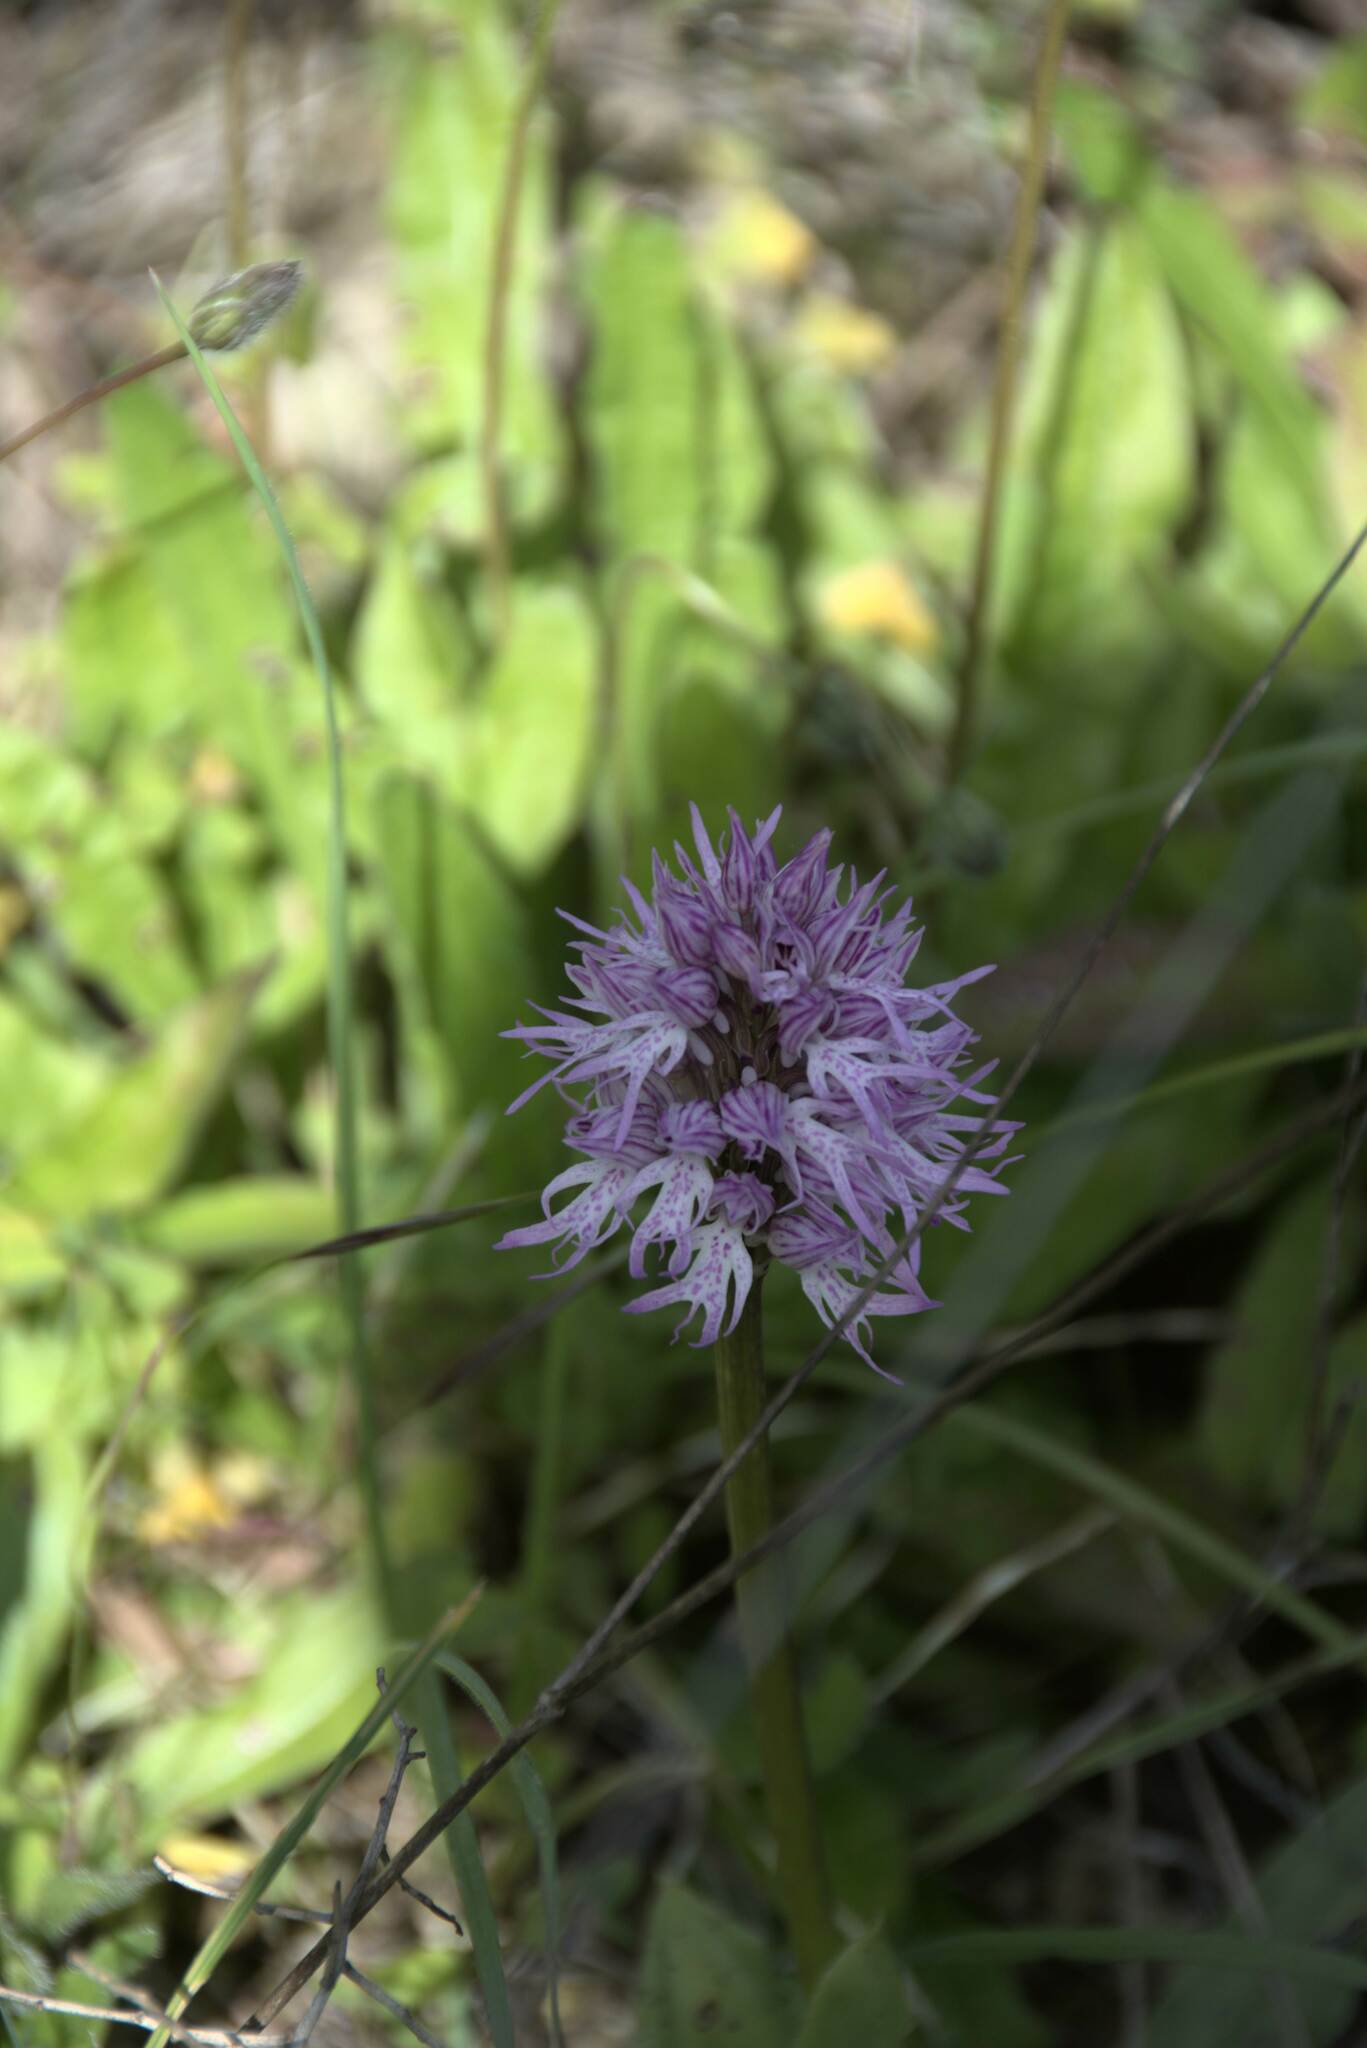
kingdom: Plantae
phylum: Tracheophyta
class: Liliopsida
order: Asparagales
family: Orchidaceae
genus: Orchis
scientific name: Orchis italica
